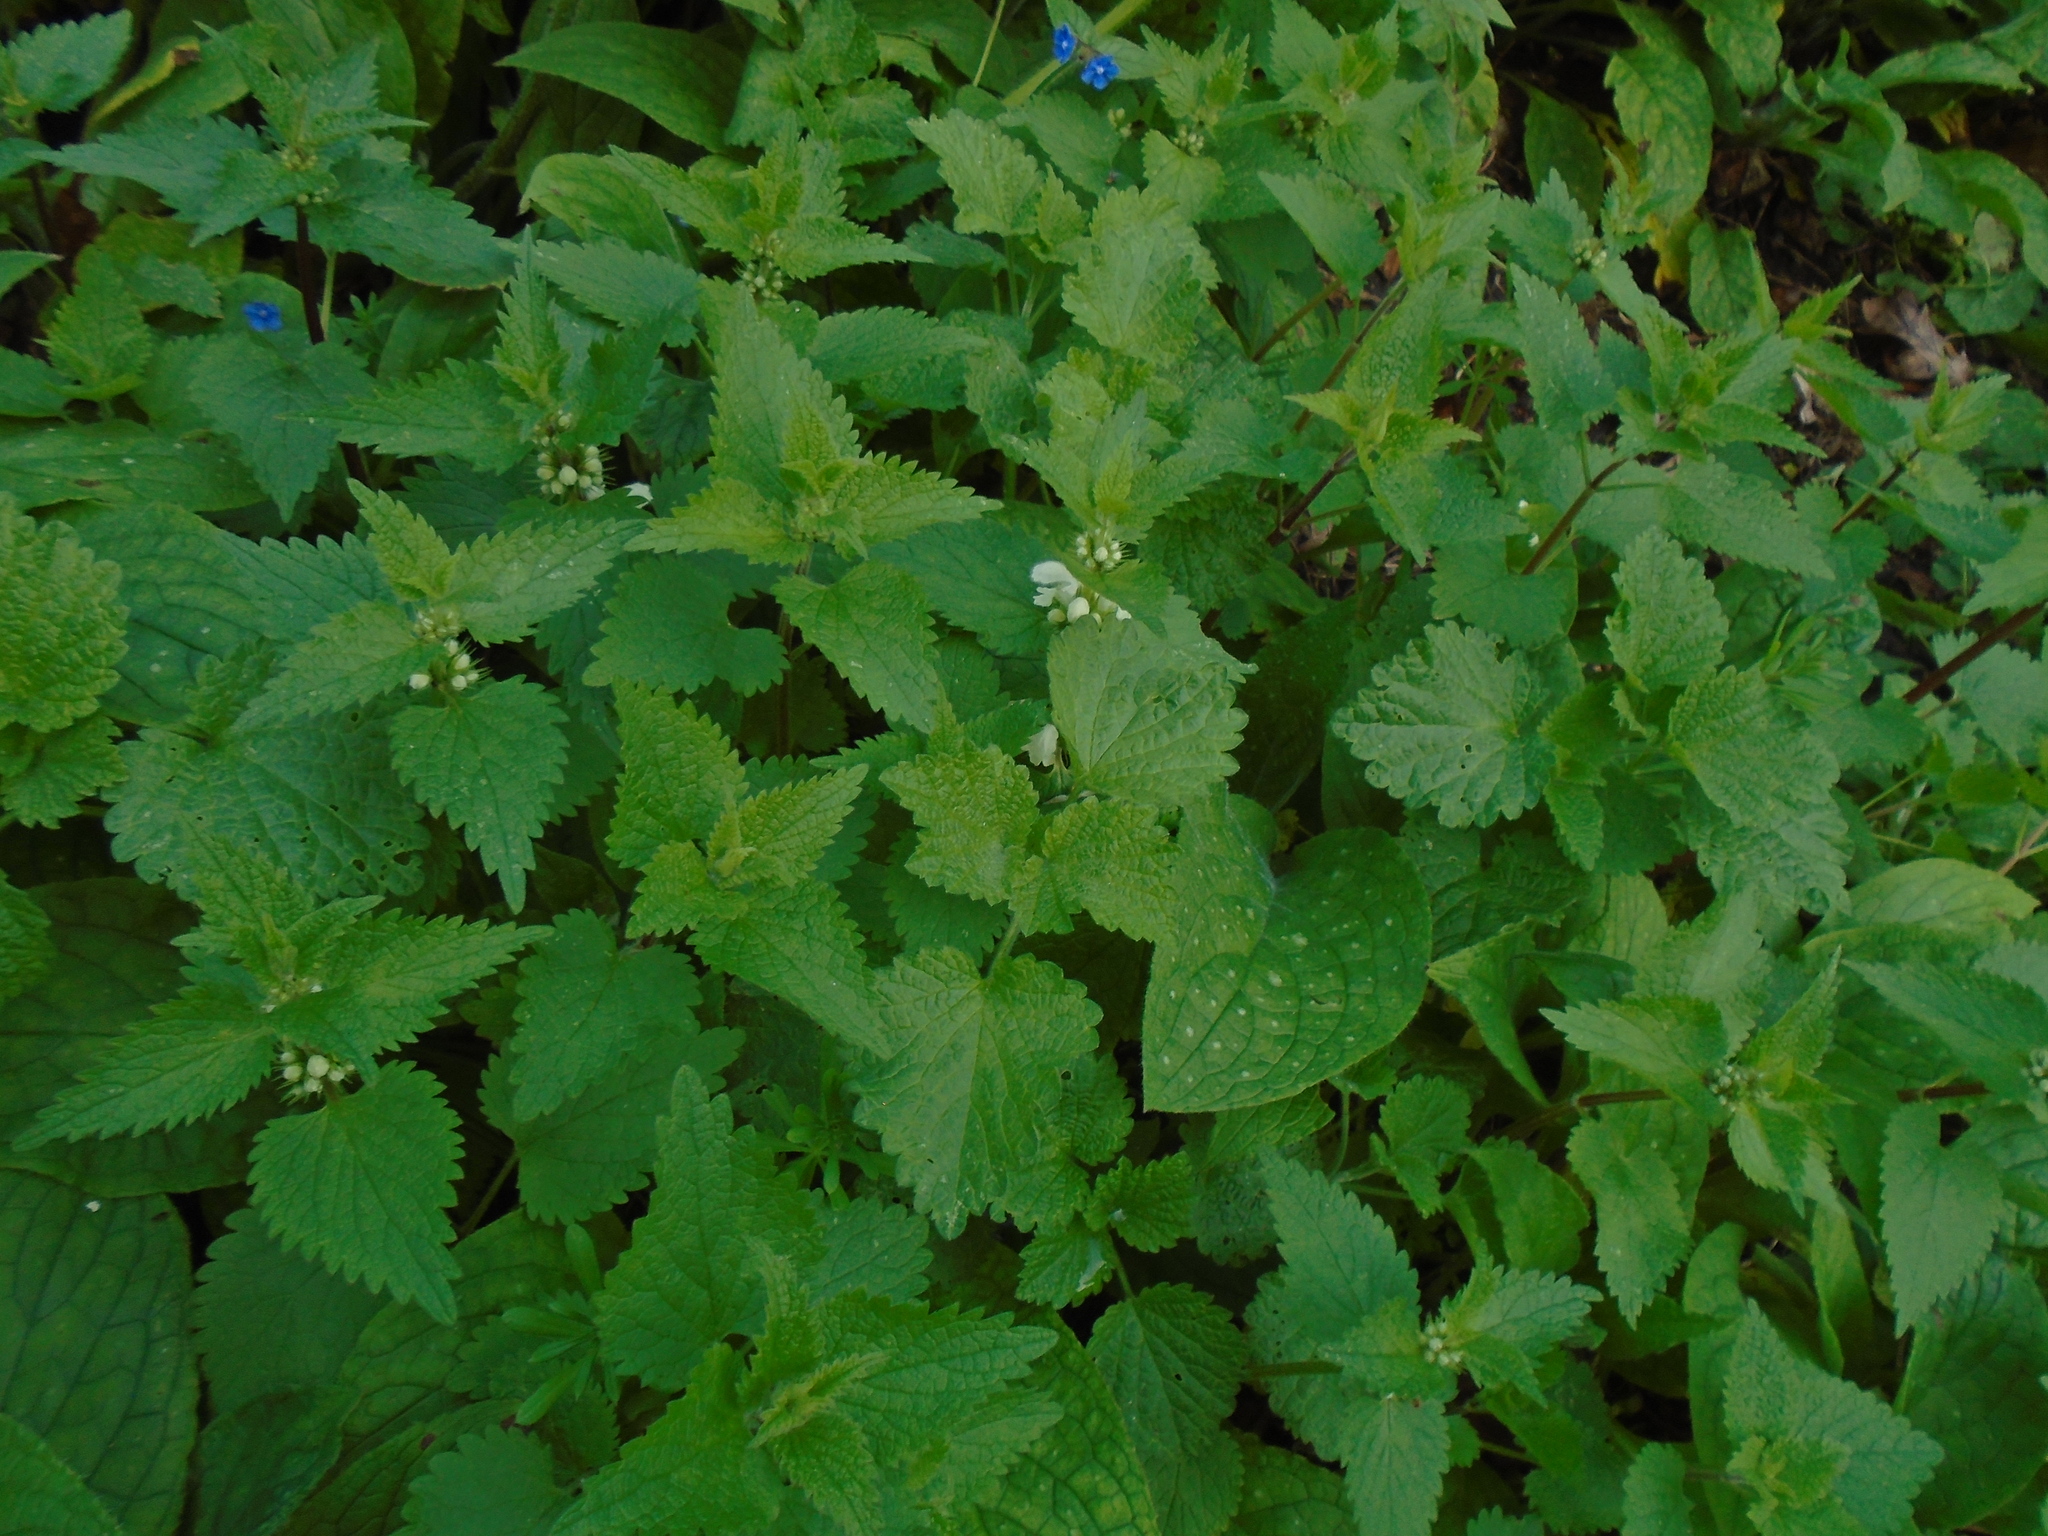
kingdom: Plantae
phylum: Tracheophyta
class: Magnoliopsida
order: Lamiales
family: Lamiaceae
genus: Lamium
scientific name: Lamium album
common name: White dead-nettle
